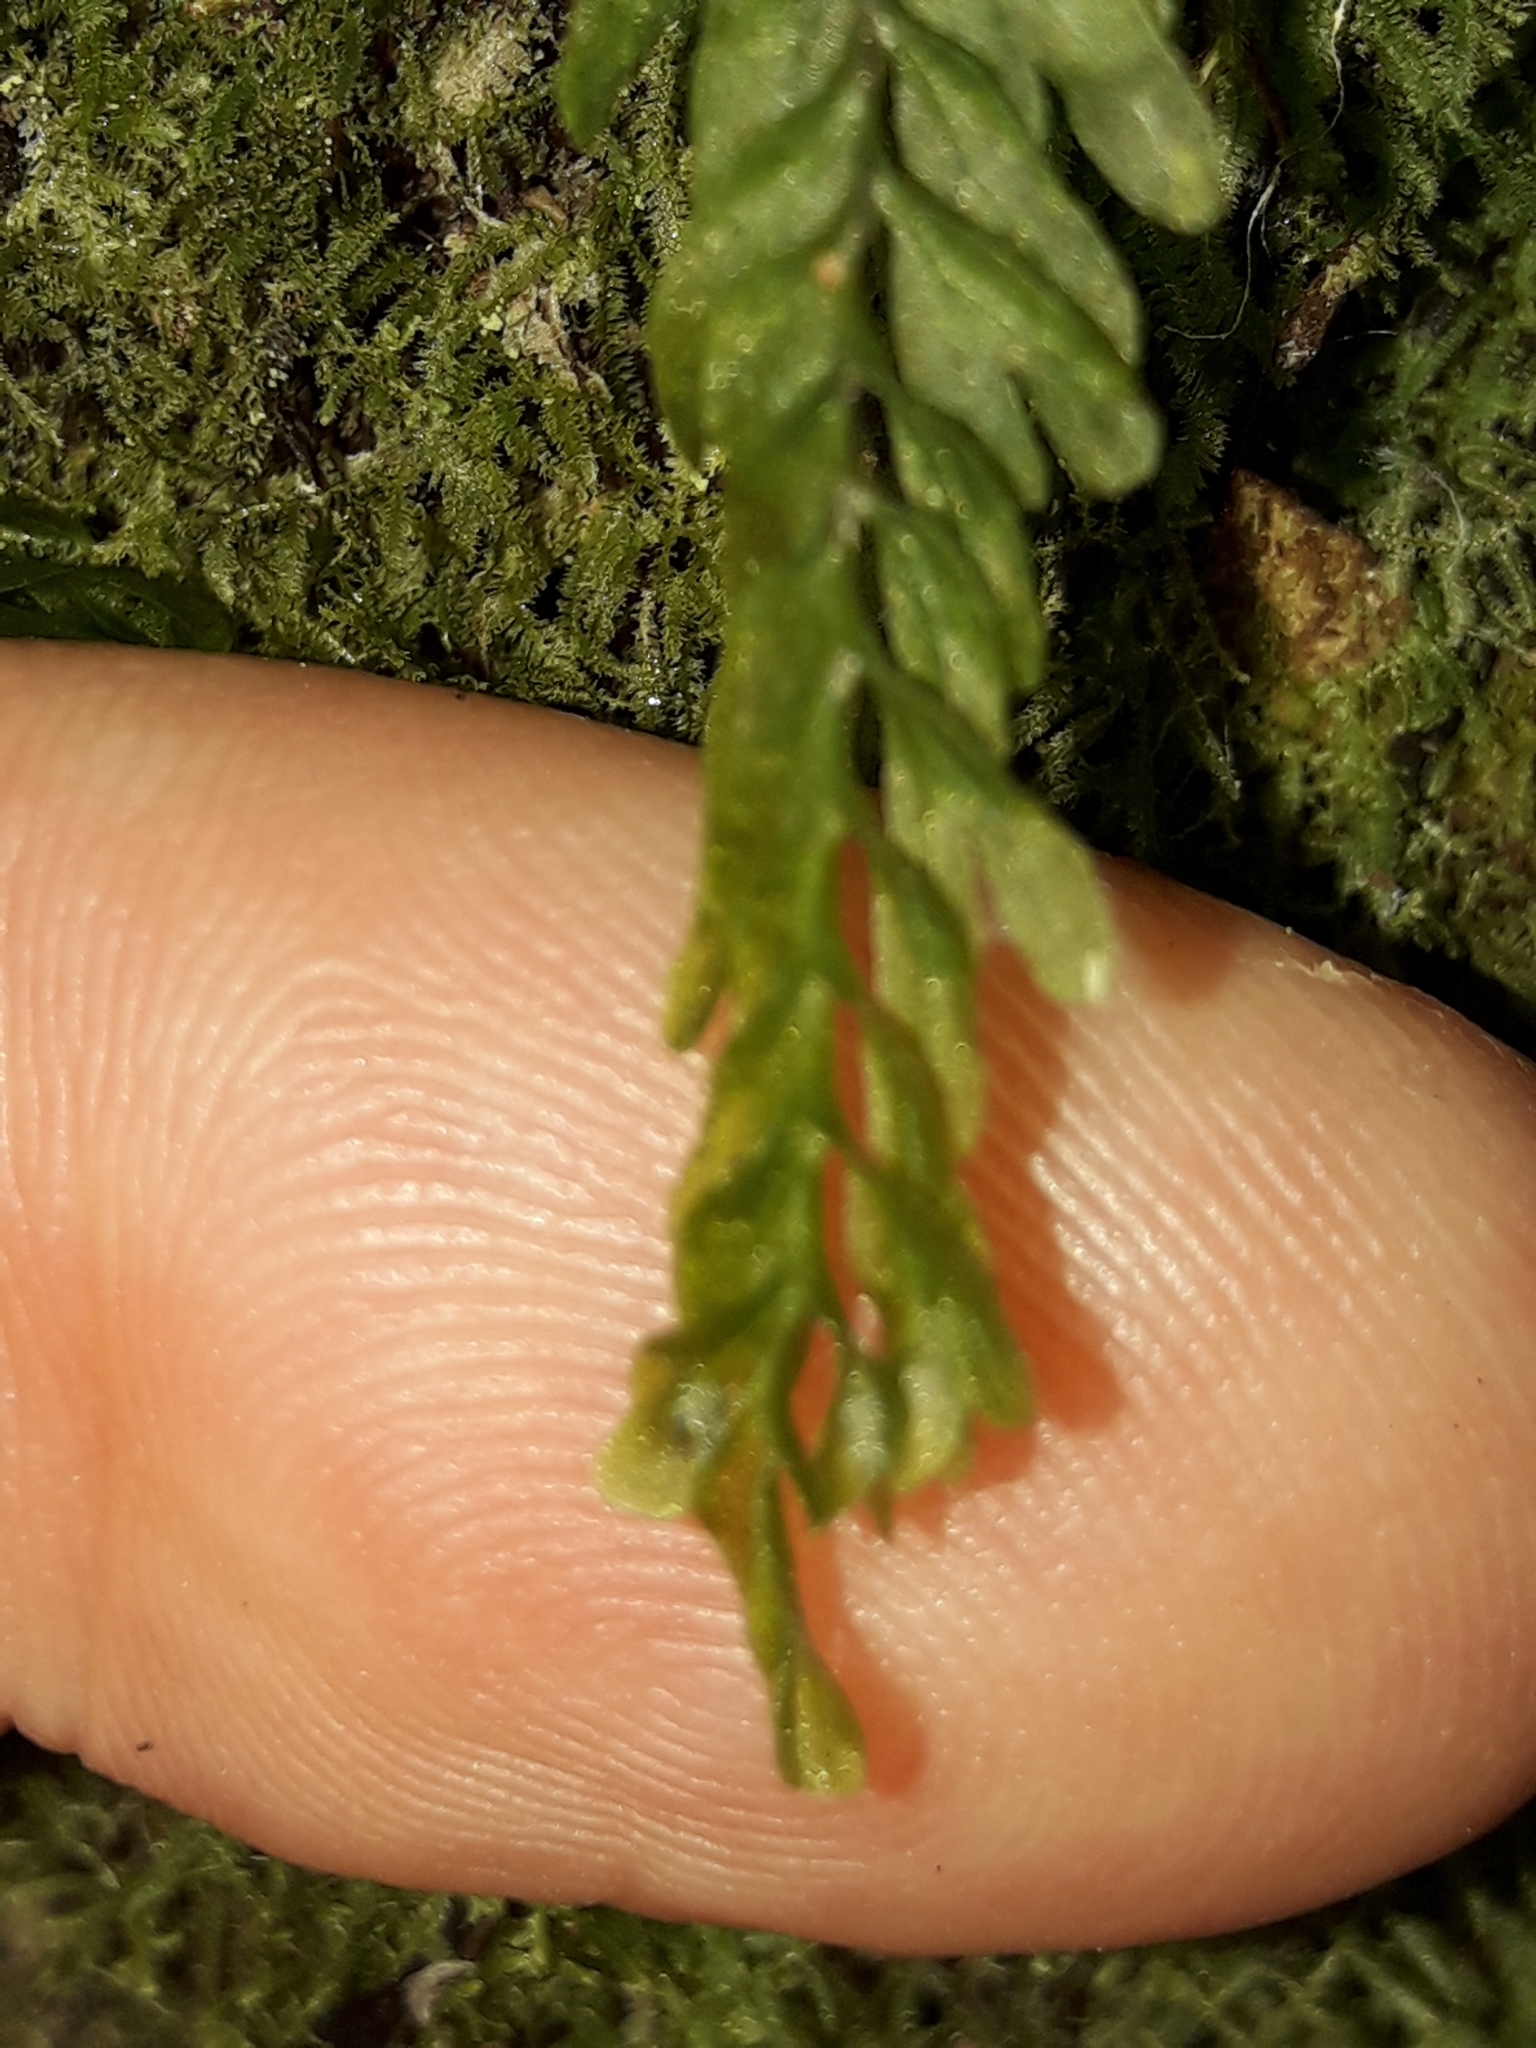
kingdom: Plantae
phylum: Tracheophyta
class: Polypodiopsida
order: Hymenophyllales
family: Hymenophyllaceae
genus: Hymenophyllum
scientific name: Hymenophyllum mnioides
